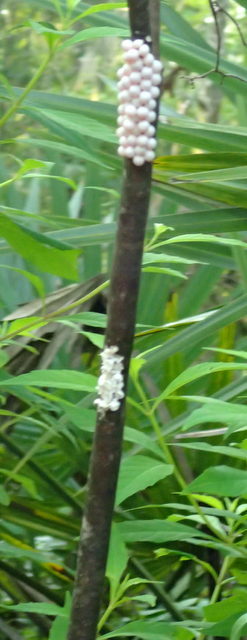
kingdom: Animalia
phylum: Mollusca
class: Gastropoda
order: Architaenioglossa
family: Ampullariidae
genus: Pomacea
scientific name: Pomacea paludosa
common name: Florida applesnail
